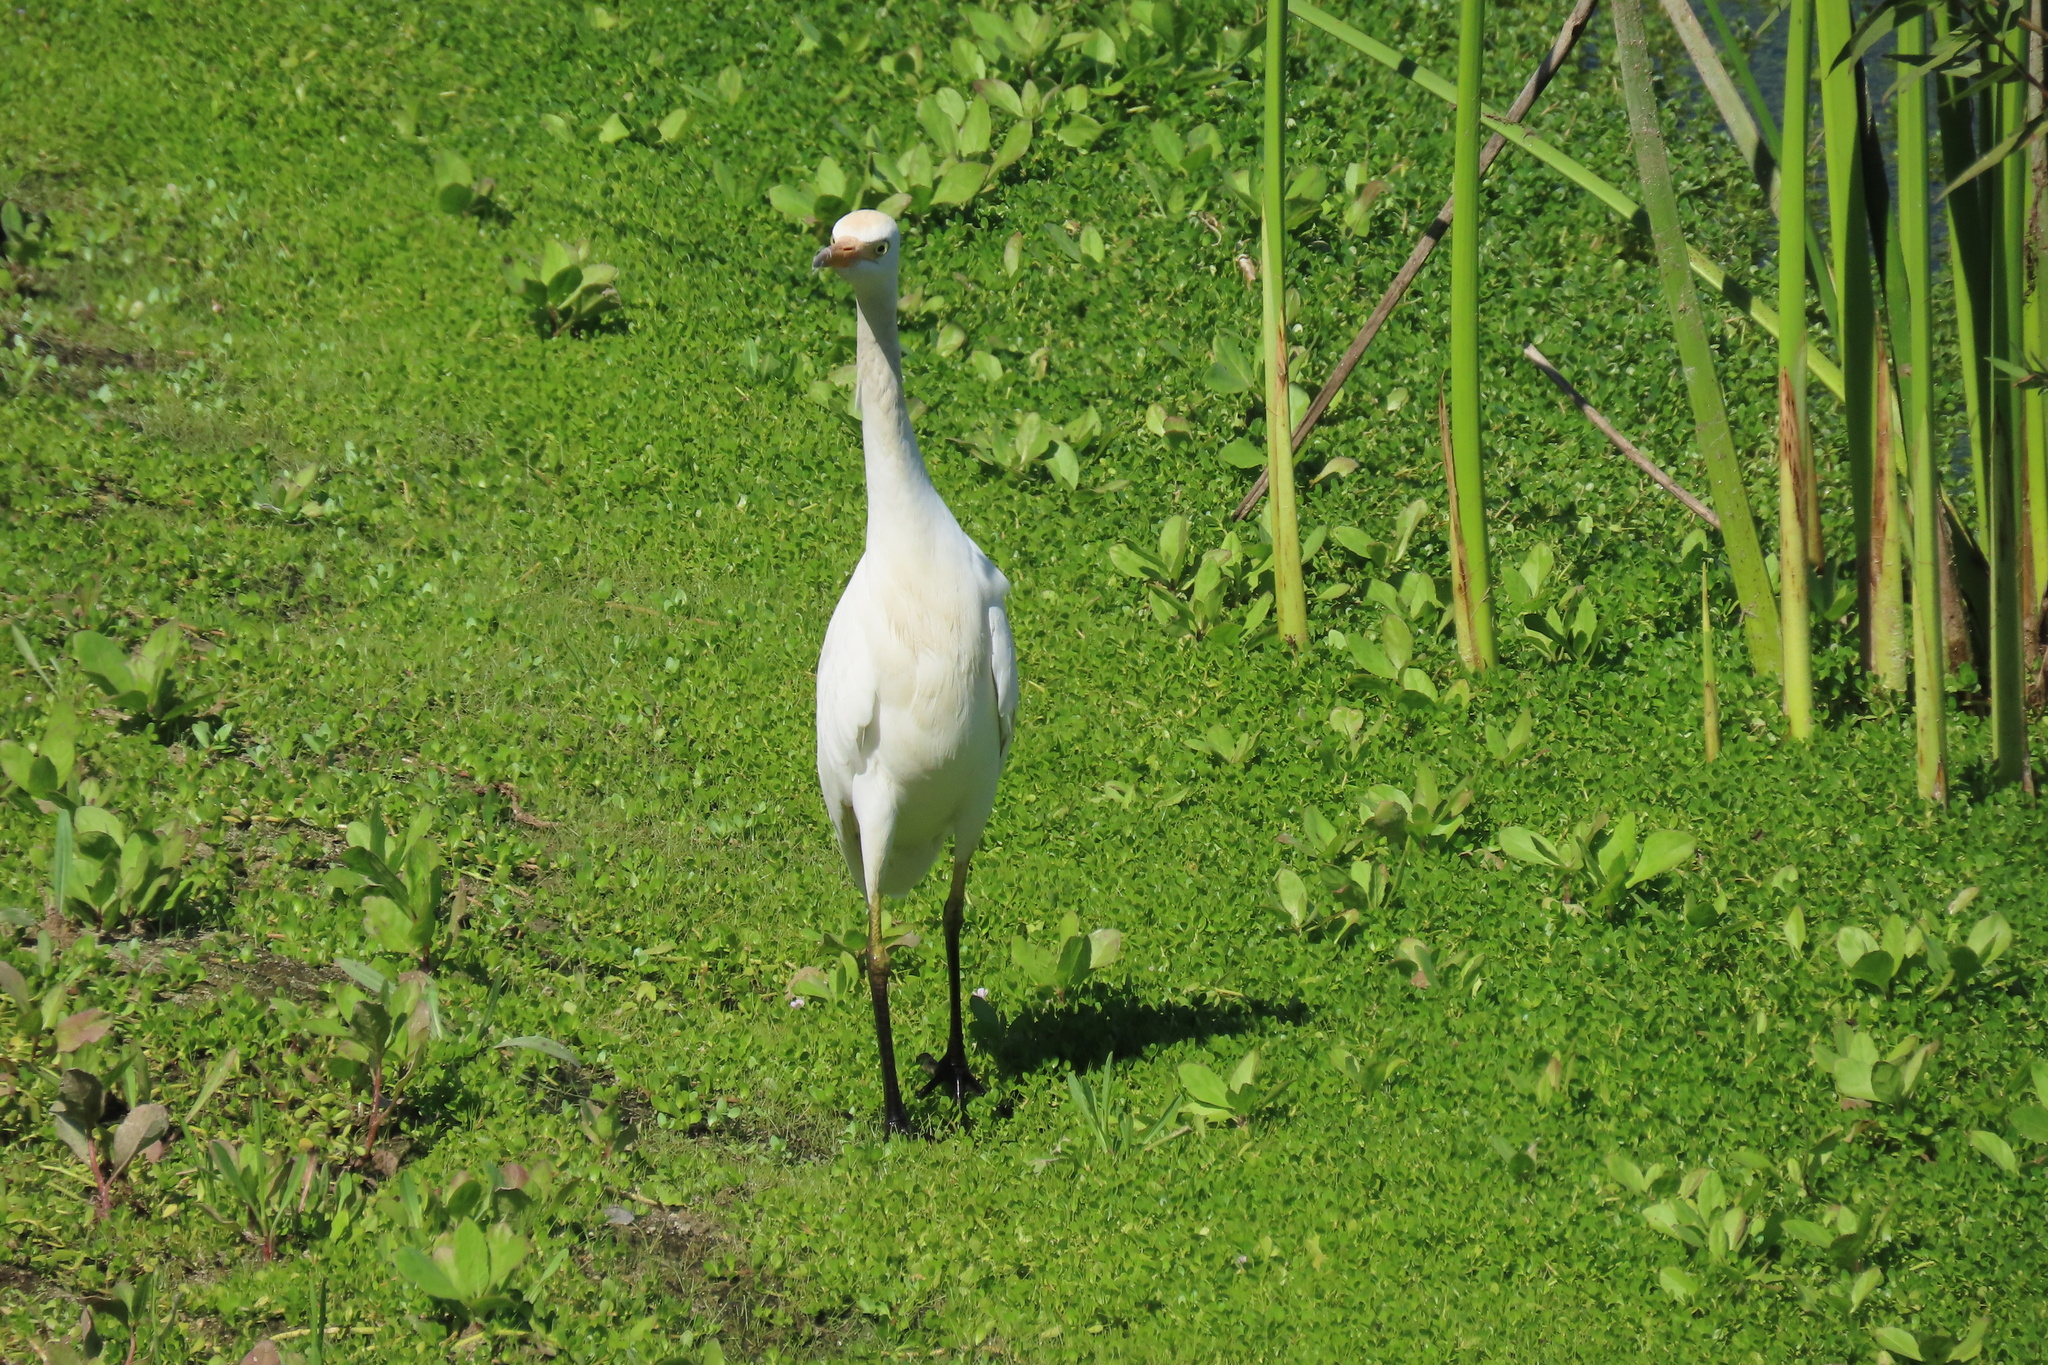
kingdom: Animalia
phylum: Chordata
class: Aves
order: Pelecaniformes
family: Ardeidae
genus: Bubulcus
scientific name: Bubulcus ibis
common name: Cattle egret
